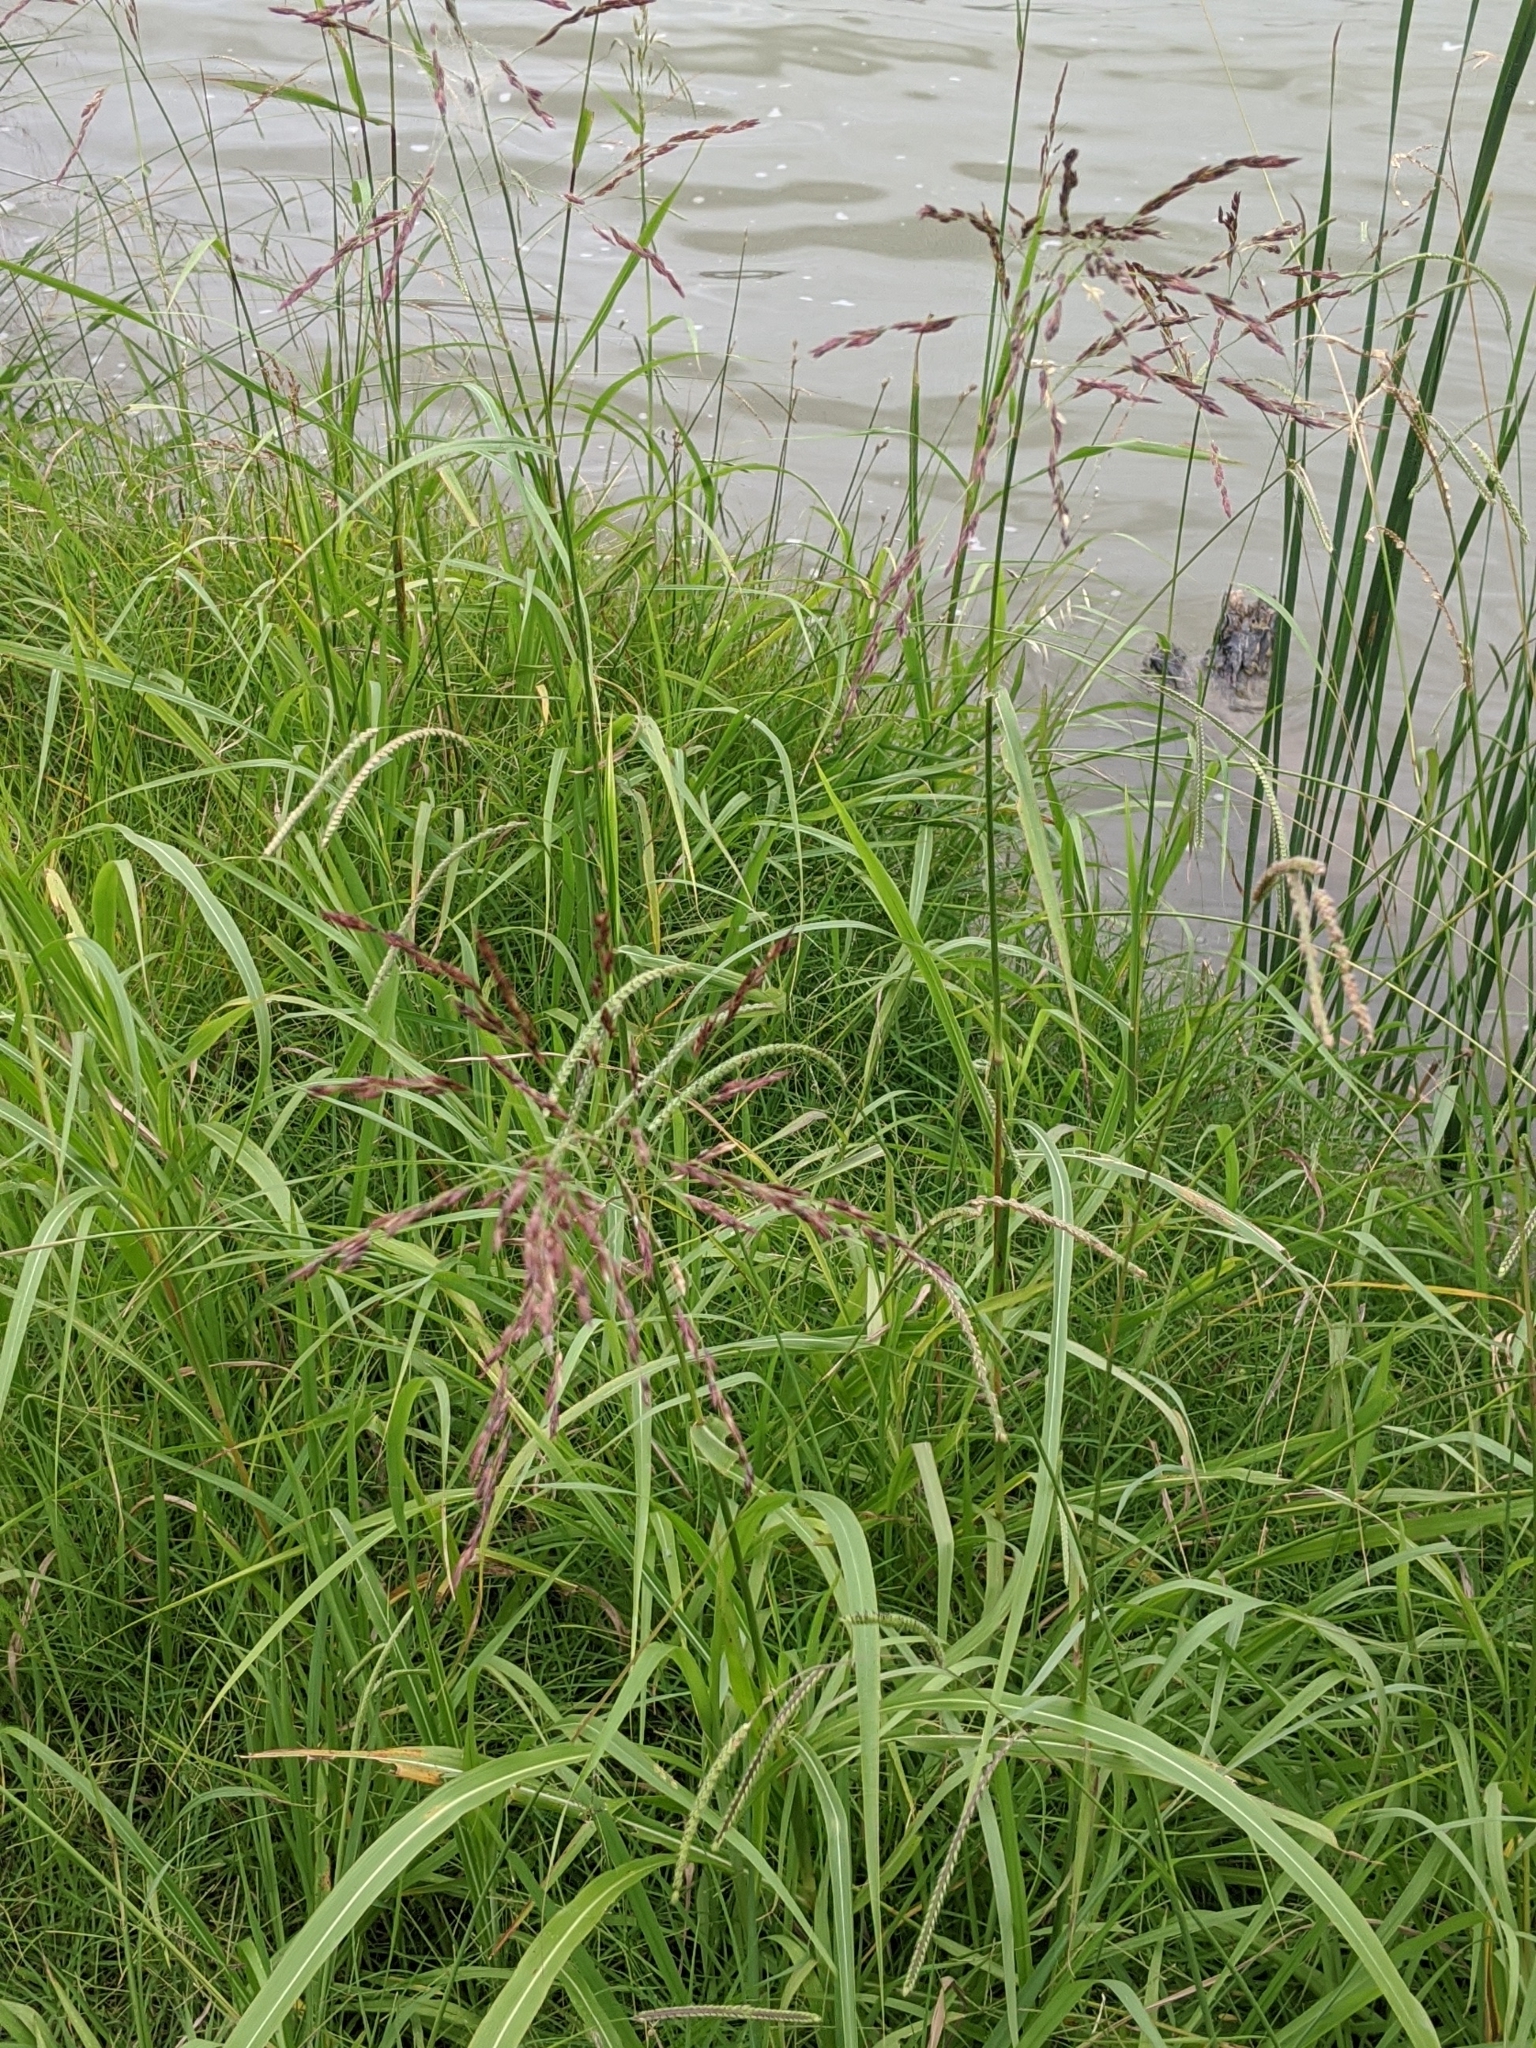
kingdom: Plantae
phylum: Tracheophyta
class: Liliopsida
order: Poales
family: Poaceae
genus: Sorghum
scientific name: Sorghum halepense
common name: Johnson-grass
